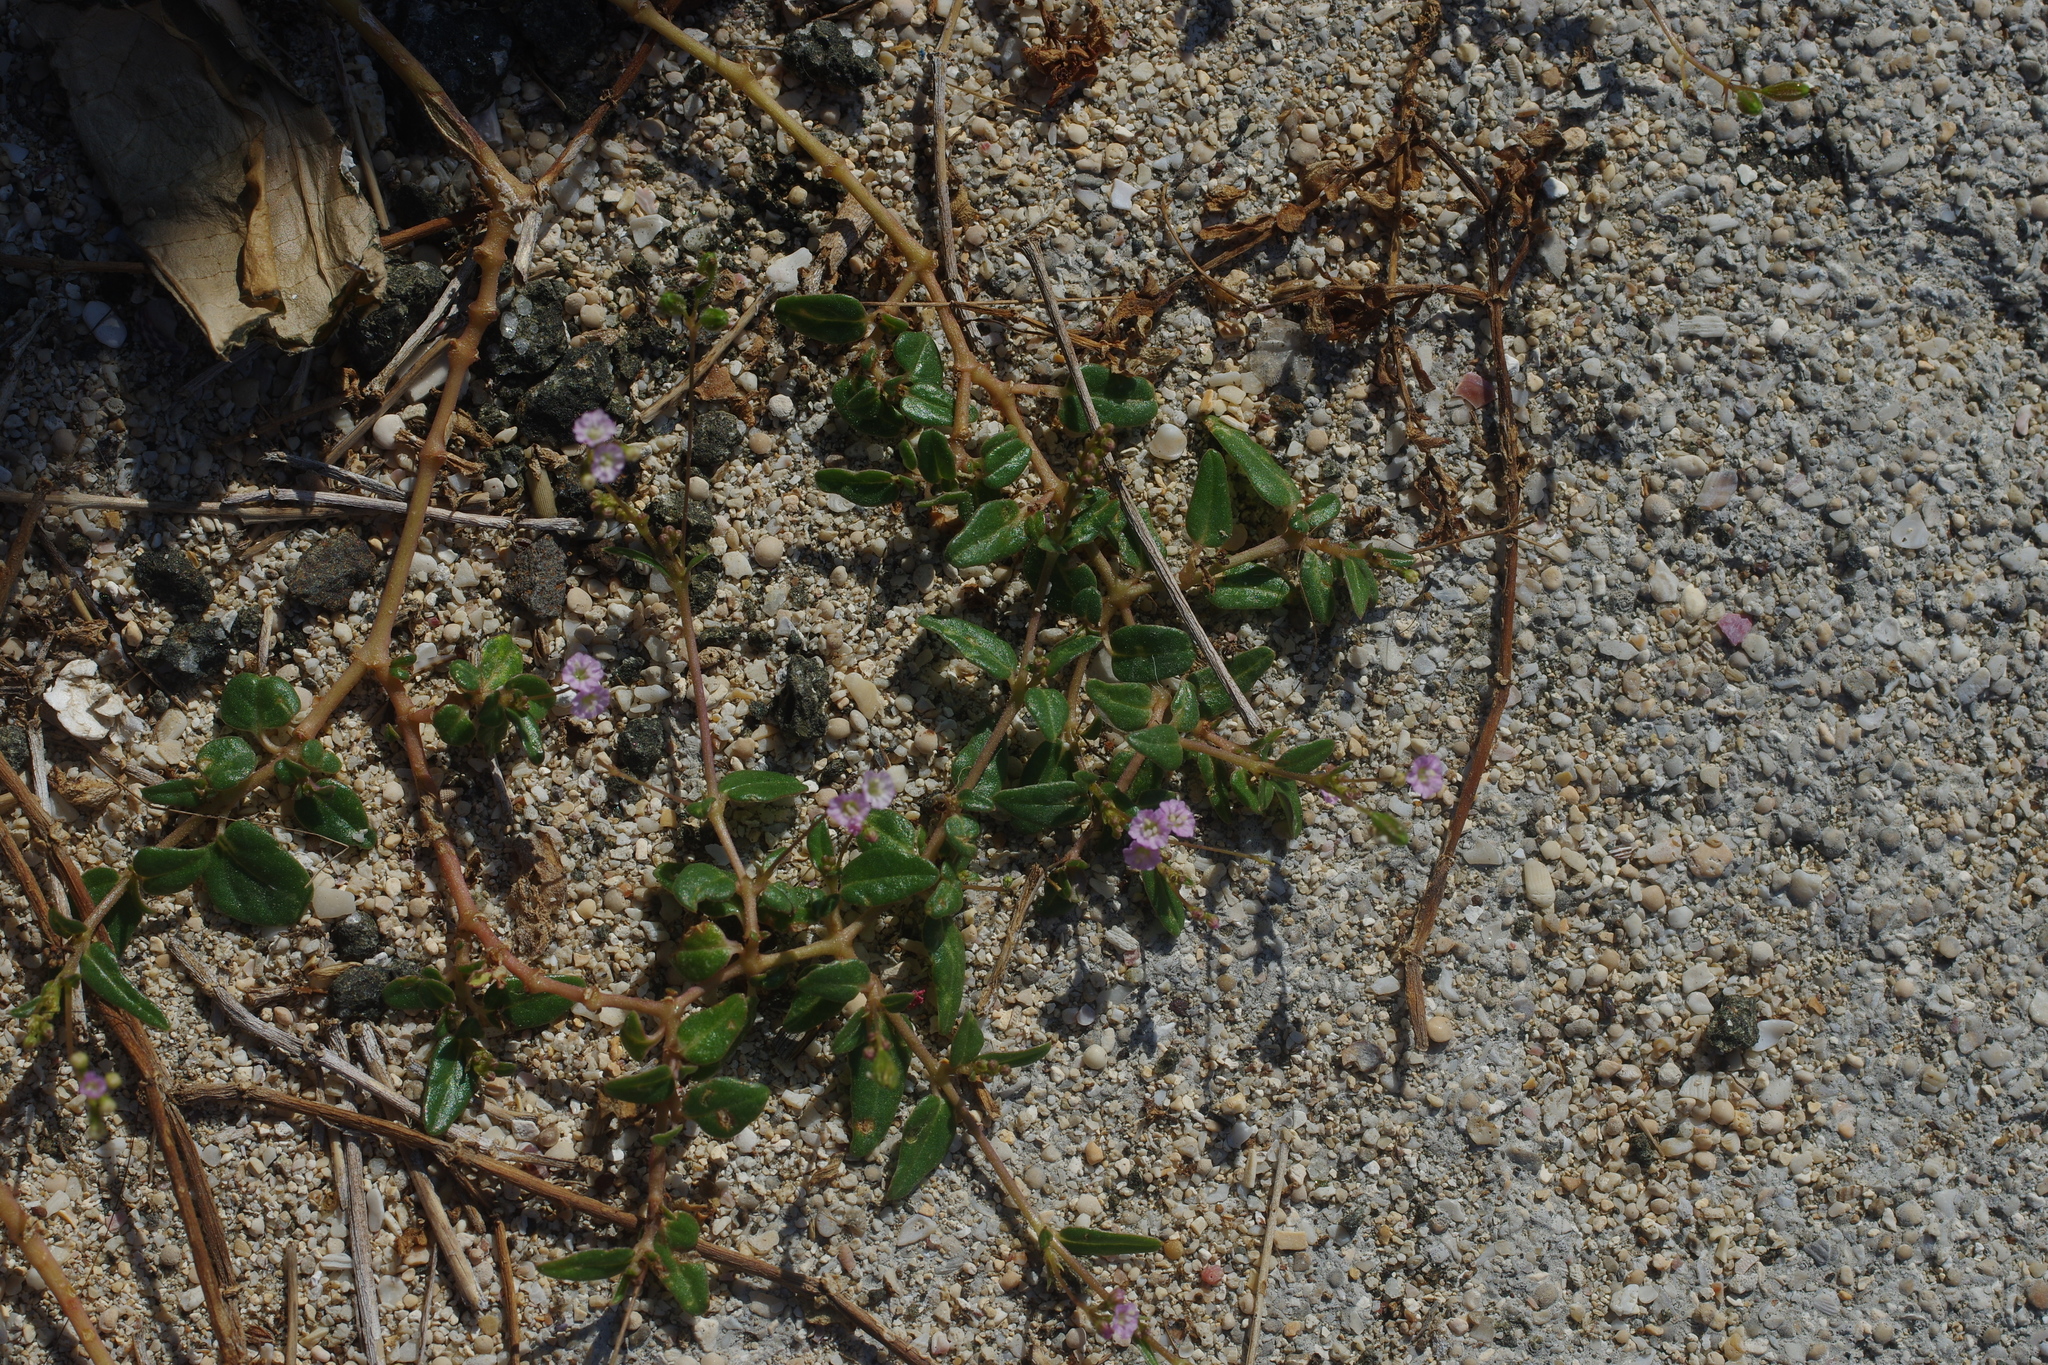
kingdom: Plantae
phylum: Tracheophyta
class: Magnoliopsida
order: Caryophyllales
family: Nyctaginaceae
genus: Boerhavia
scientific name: Boerhavia glabrata
